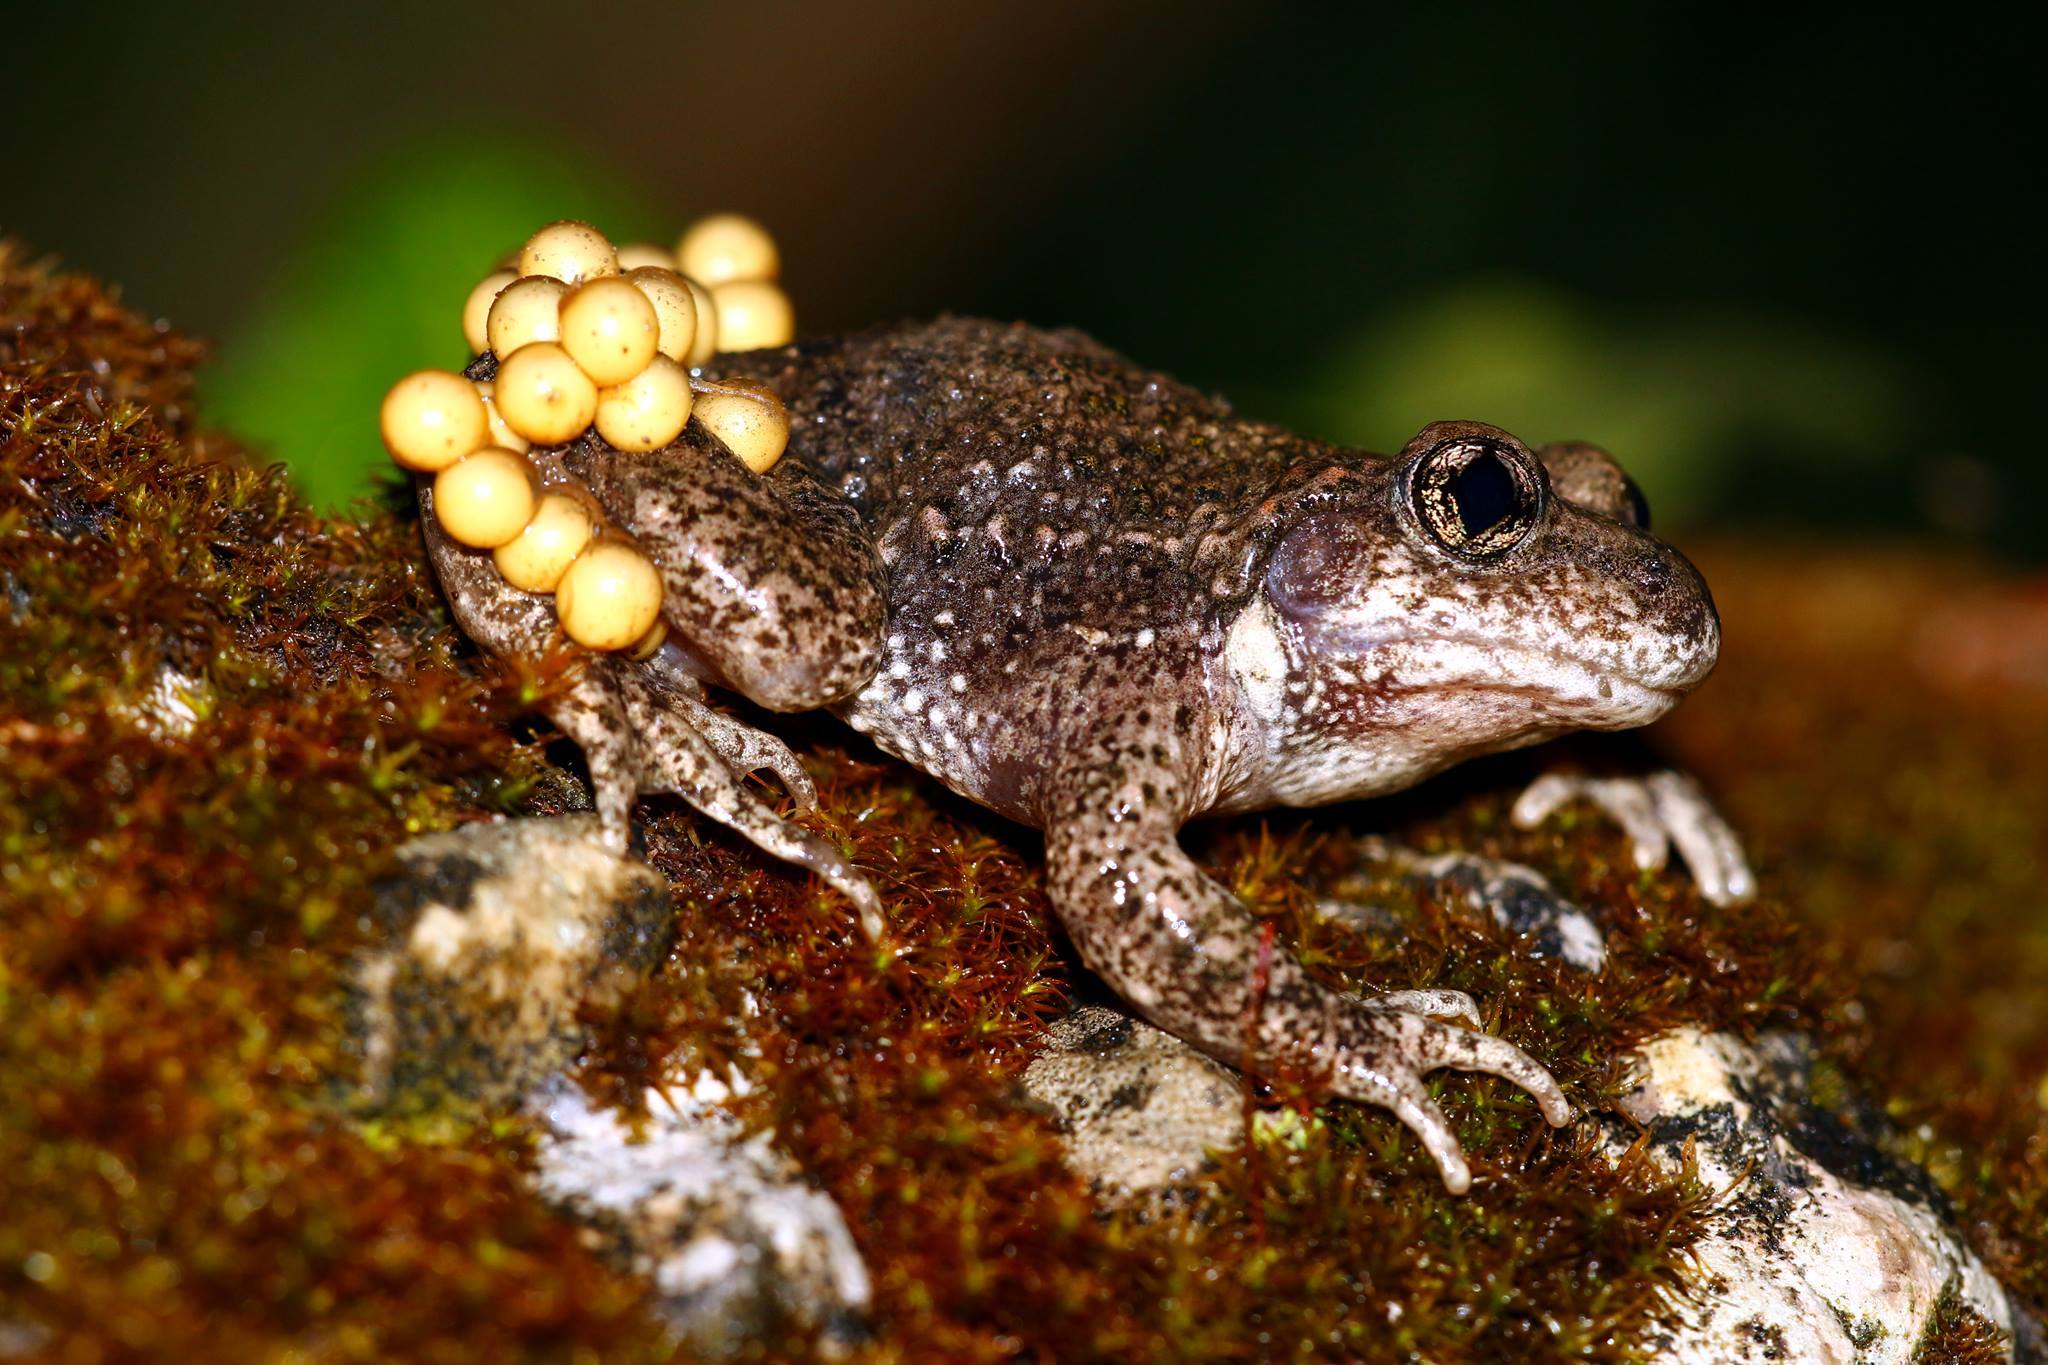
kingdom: Animalia
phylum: Chordata
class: Amphibia
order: Anura
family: Alytidae
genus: Alytes
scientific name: Alytes obstetricans
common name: Midwife toad
